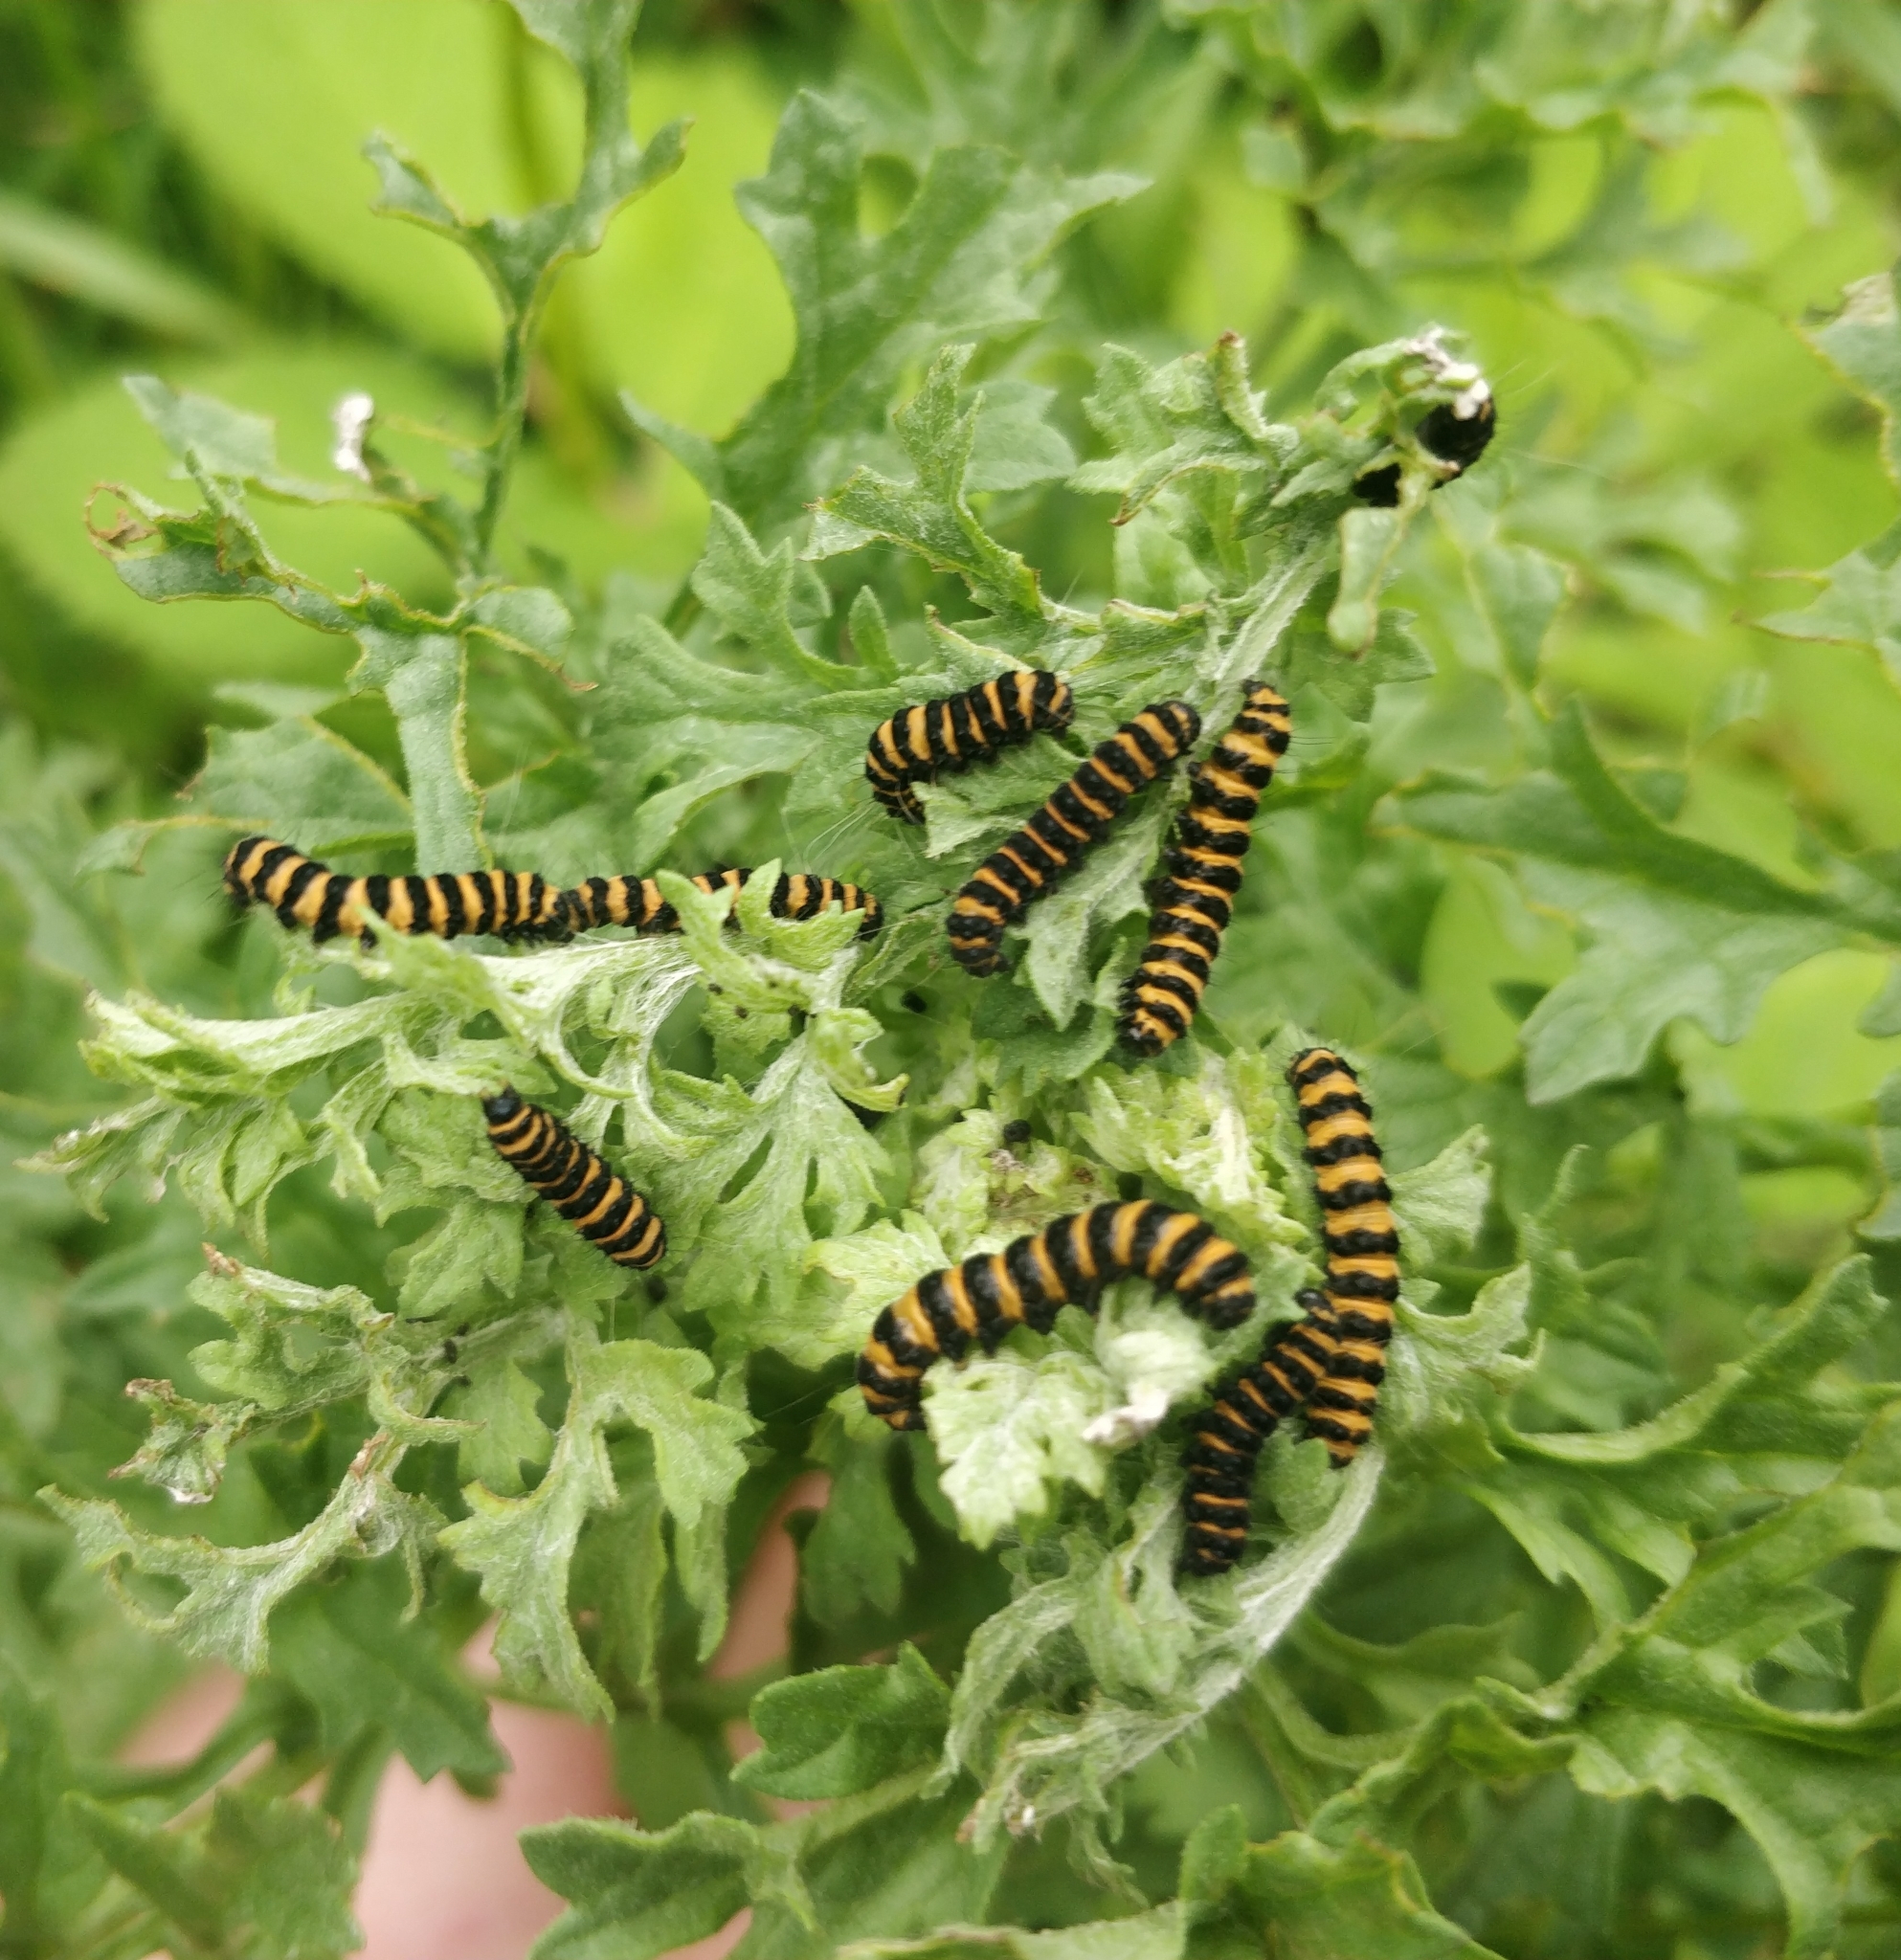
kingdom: Animalia
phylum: Arthropoda
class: Insecta
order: Lepidoptera
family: Erebidae
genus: Tyria
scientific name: Tyria jacobaeae
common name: Cinnabar
